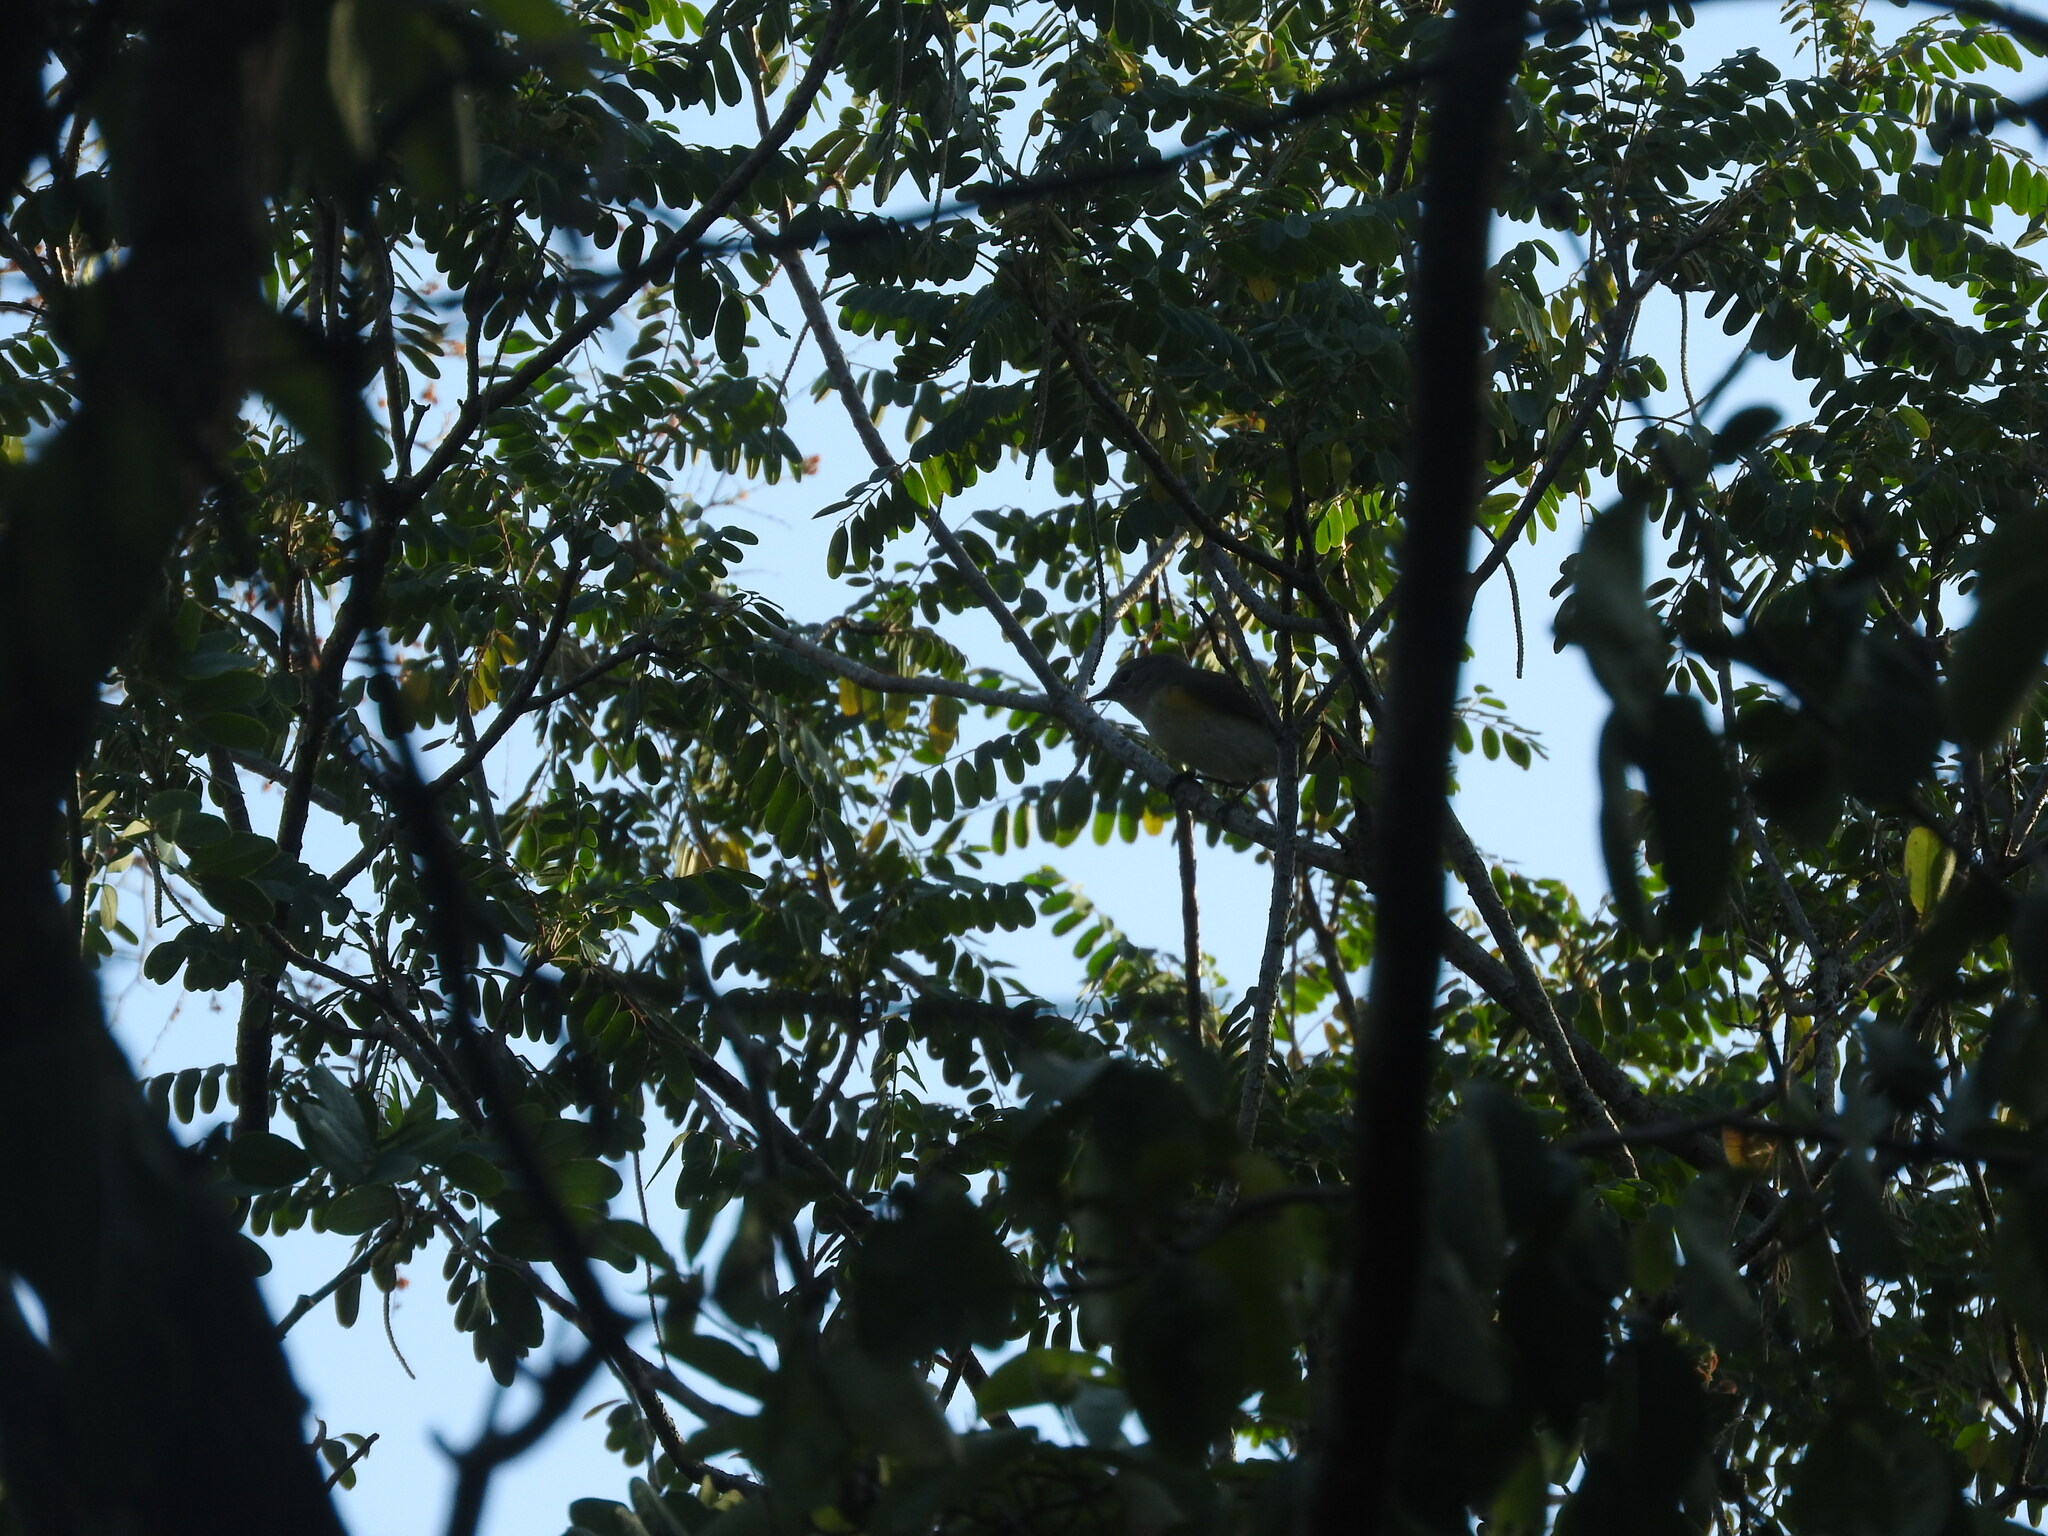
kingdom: Animalia
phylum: Chordata
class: Aves
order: Passeriformes
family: Parulidae
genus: Setophaga
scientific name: Setophaga ruticilla
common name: American redstart
